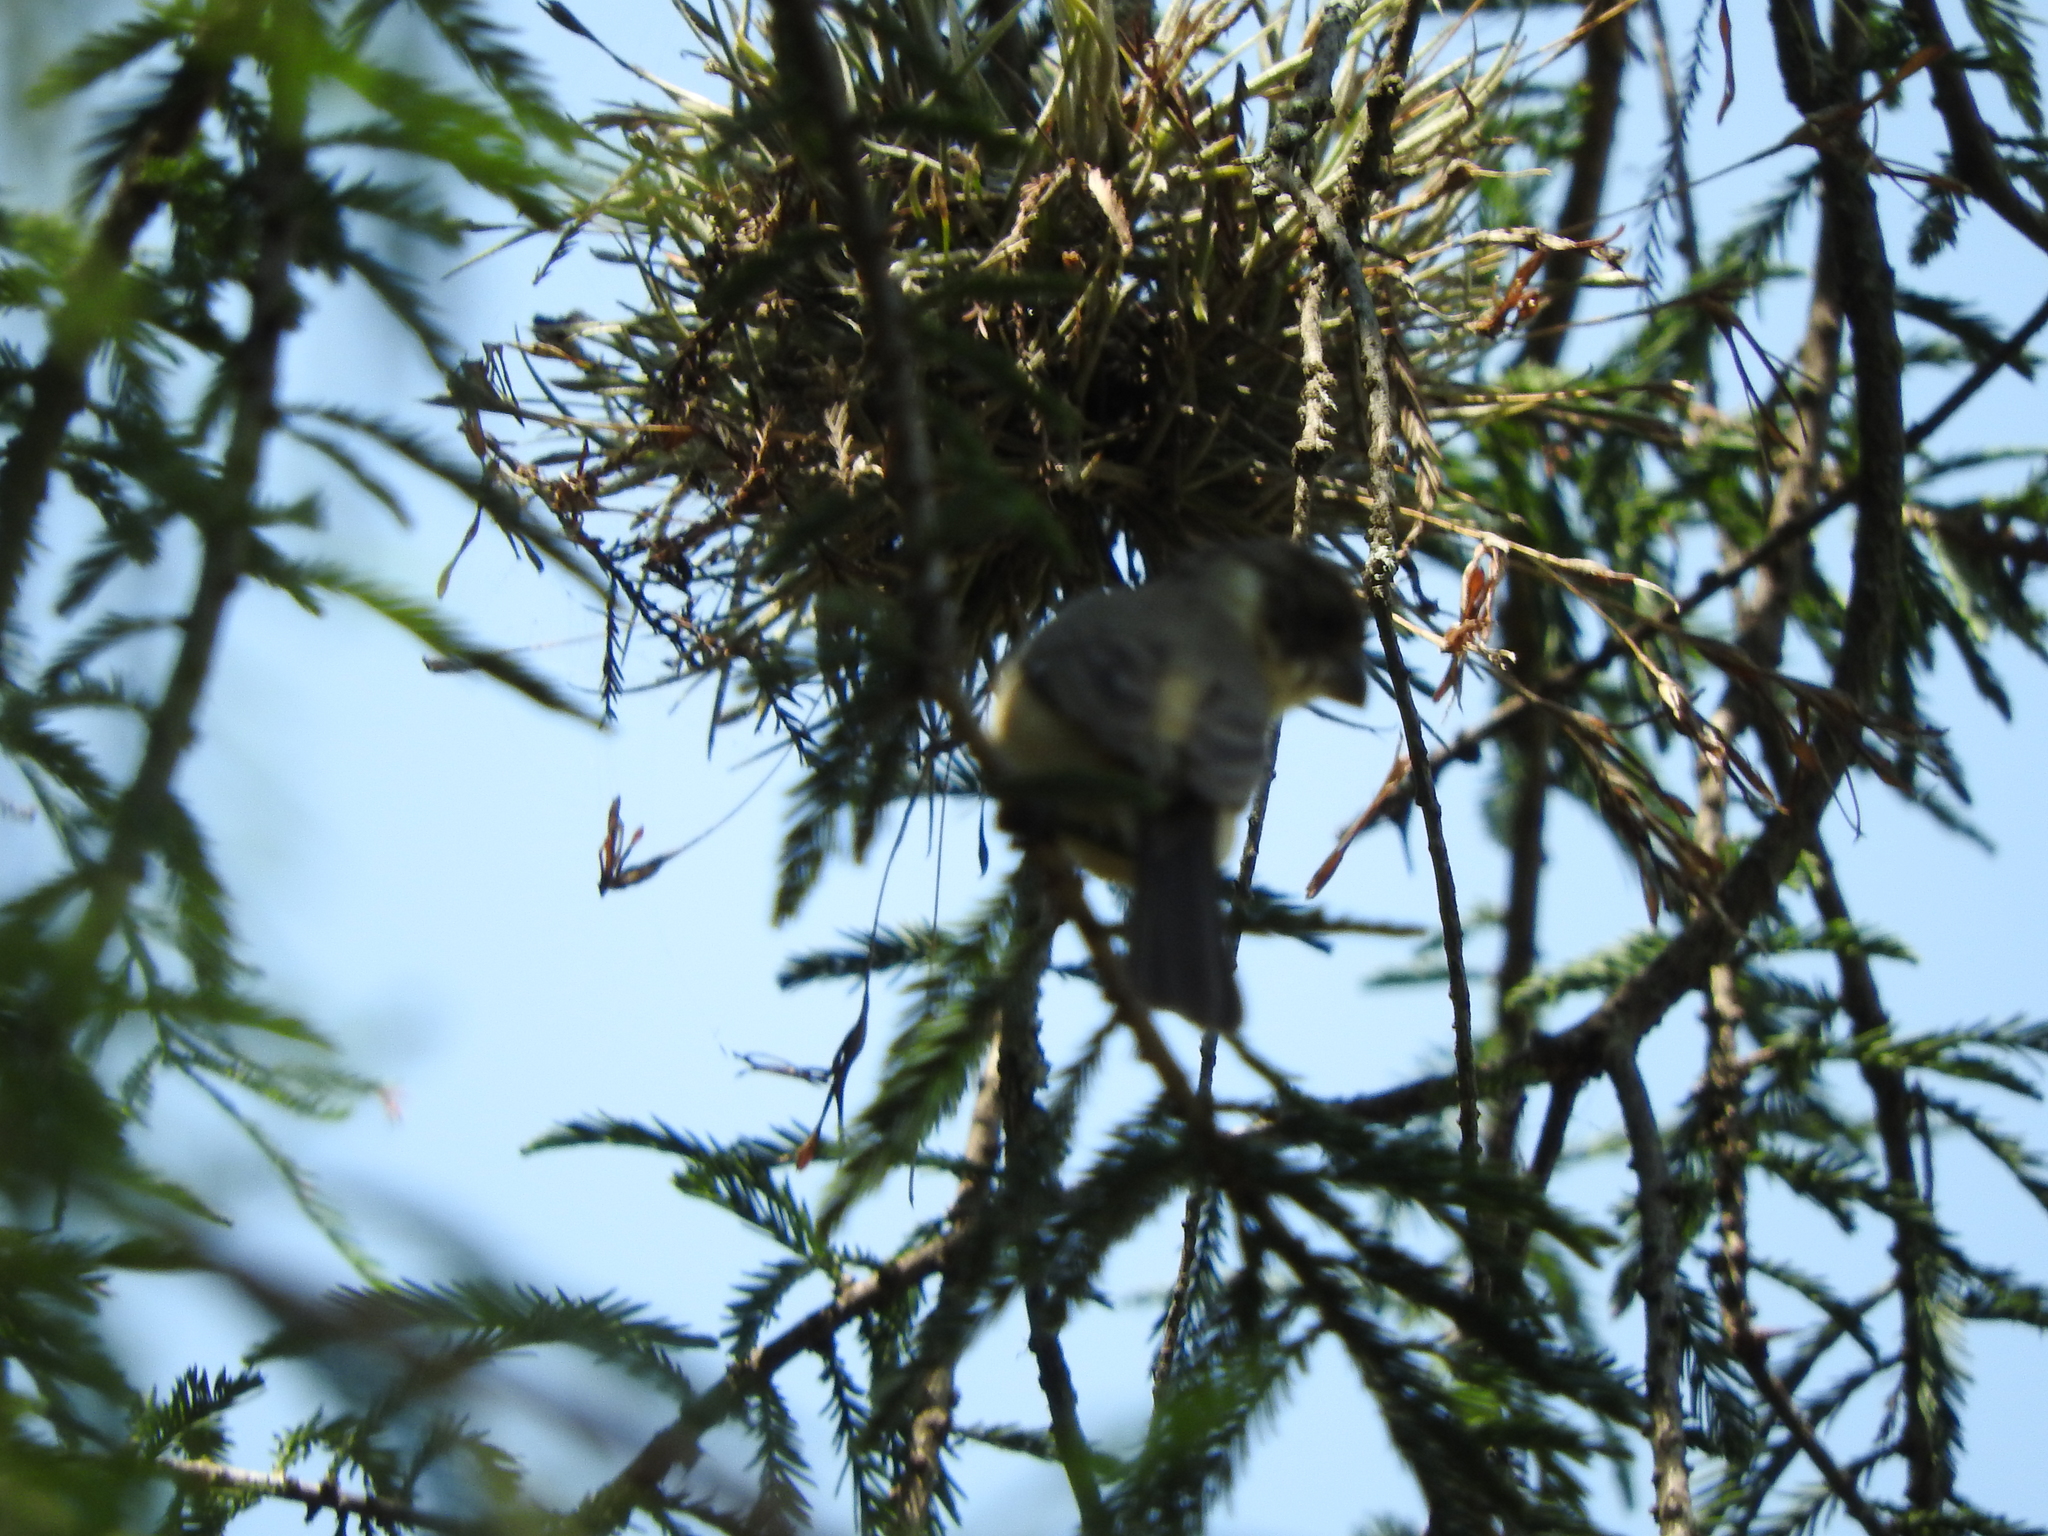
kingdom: Animalia
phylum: Chordata
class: Aves
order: Passeriformes
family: Thraupidae
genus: Sporophila
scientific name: Sporophila torqueola
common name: White-collared seedeater
